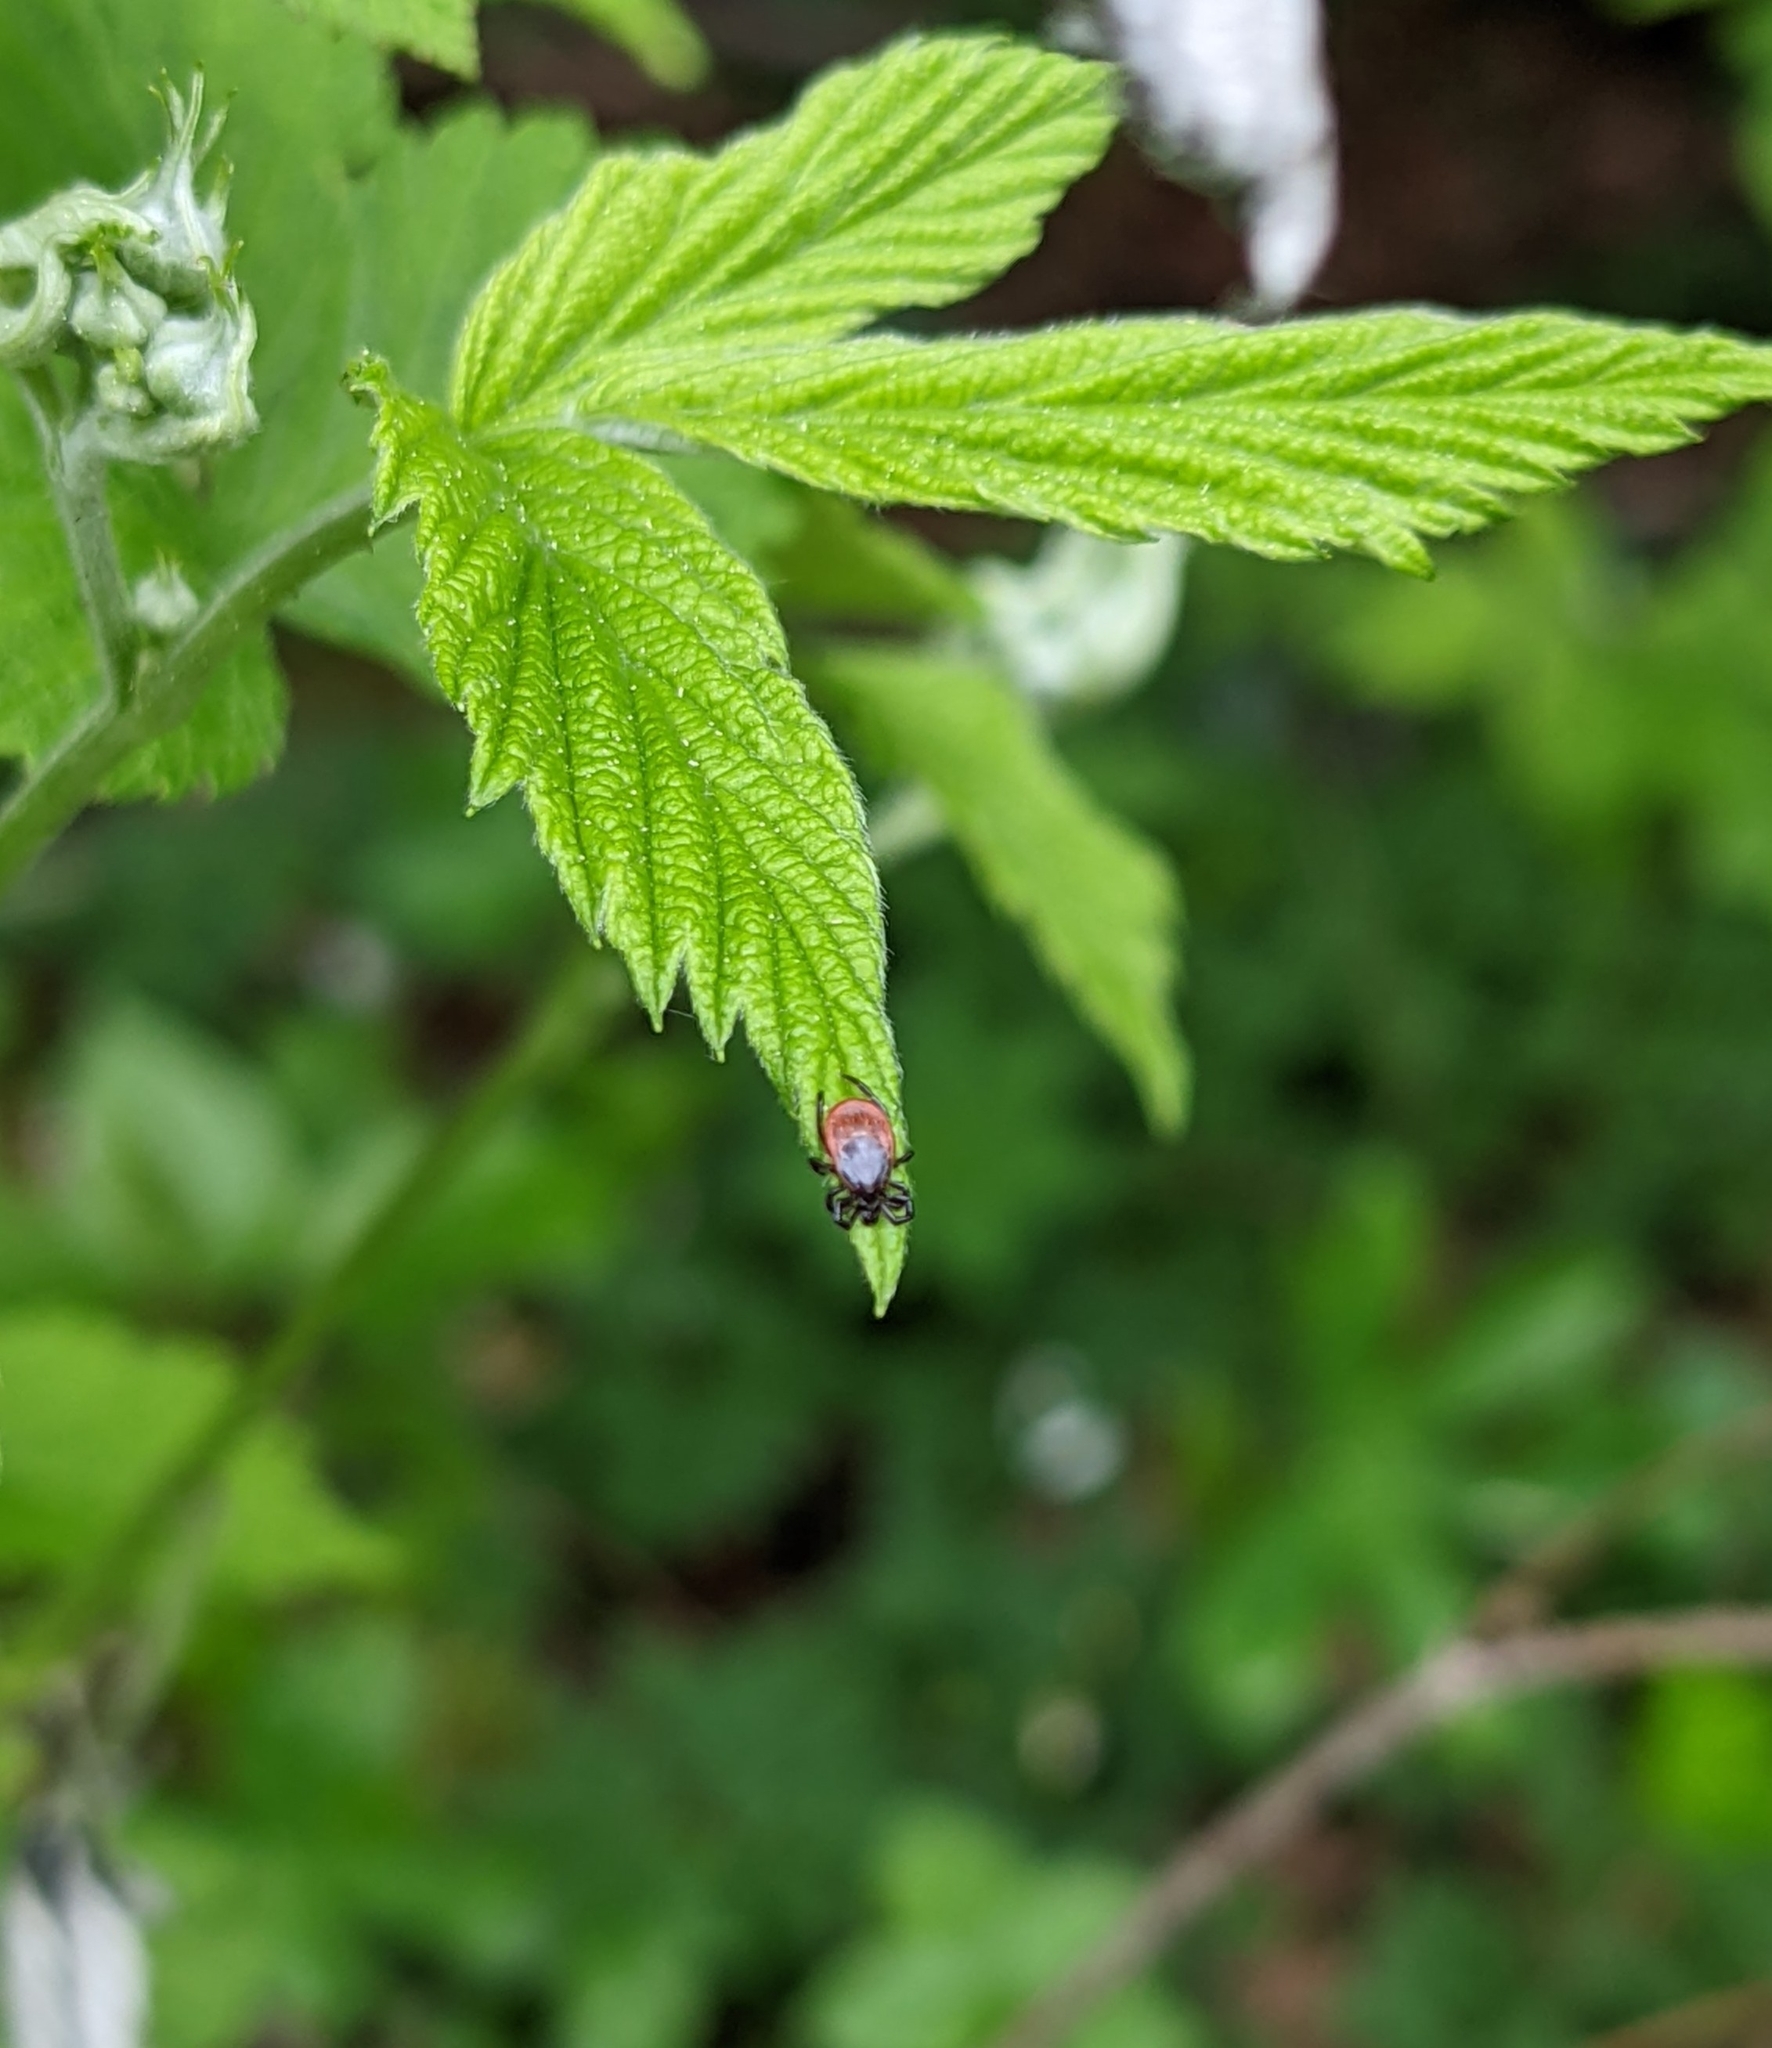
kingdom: Animalia
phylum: Arthropoda
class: Arachnida
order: Ixodida
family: Ixodidae
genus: Ixodes
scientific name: Ixodes ricinus
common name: Castor bean tick
